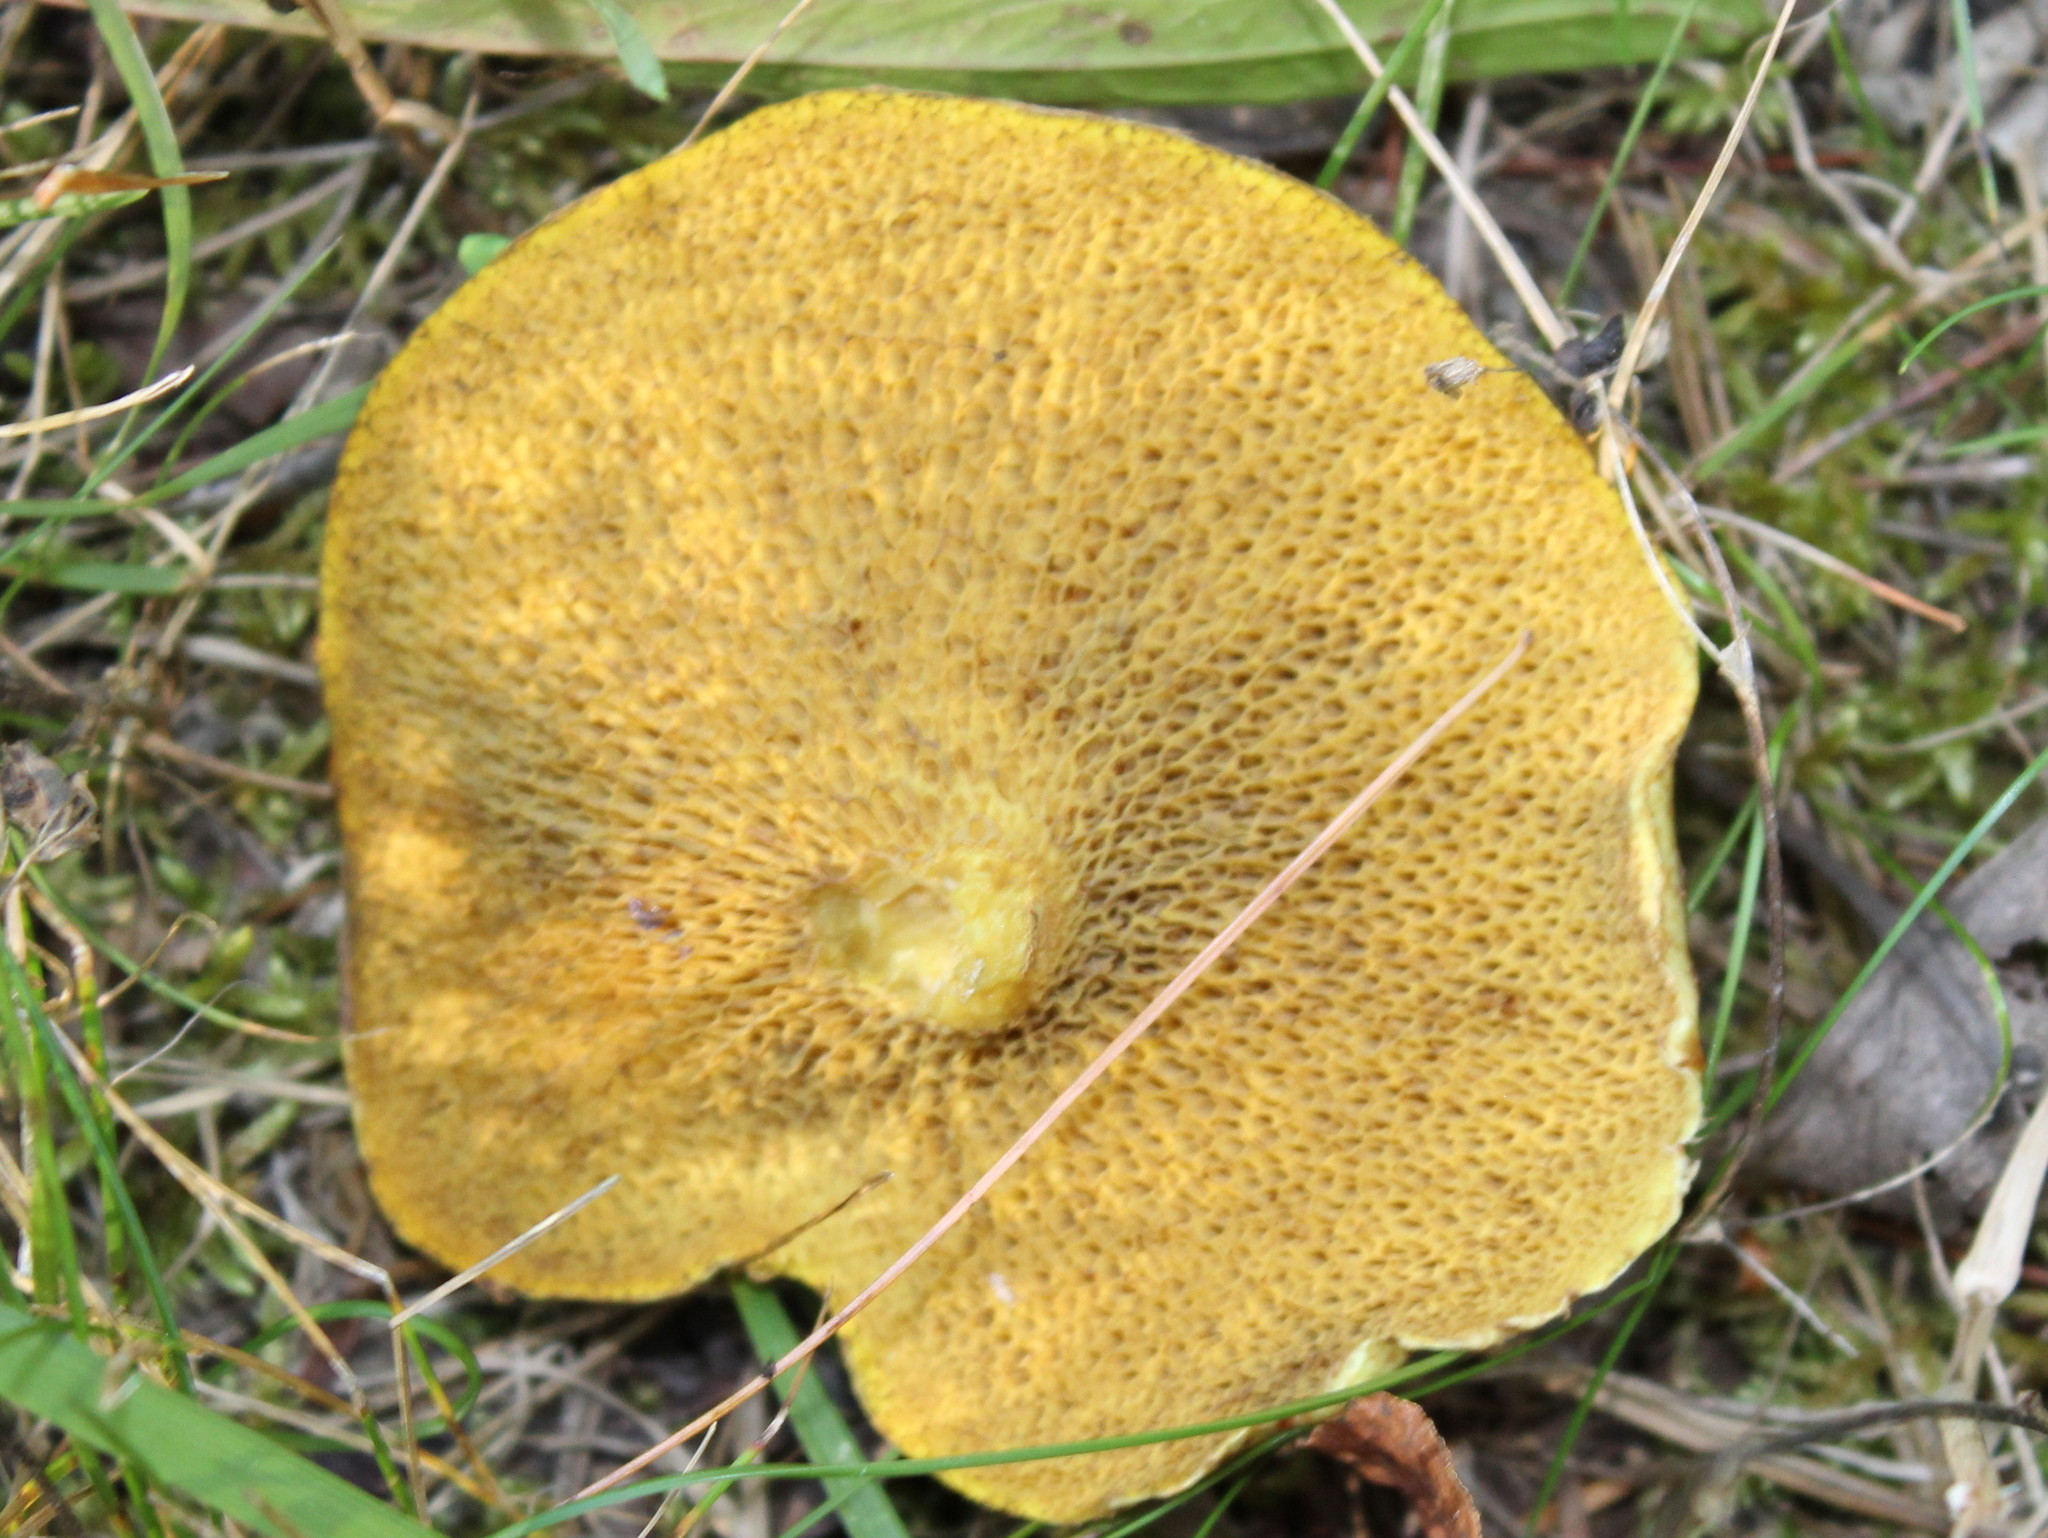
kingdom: Fungi
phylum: Basidiomycota
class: Agaricomycetes
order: Boletales
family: Suillaceae
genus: Suillus
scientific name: Suillus americanus
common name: Chicken fat mushroom
